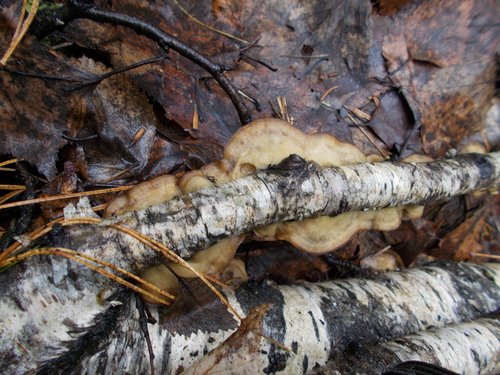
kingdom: Fungi
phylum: Basidiomycota
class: Agaricomycetes
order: Polyporales
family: Phanerochaetaceae
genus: Bjerkandera
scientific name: Bjerkandera adusta
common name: Smoky bracket
